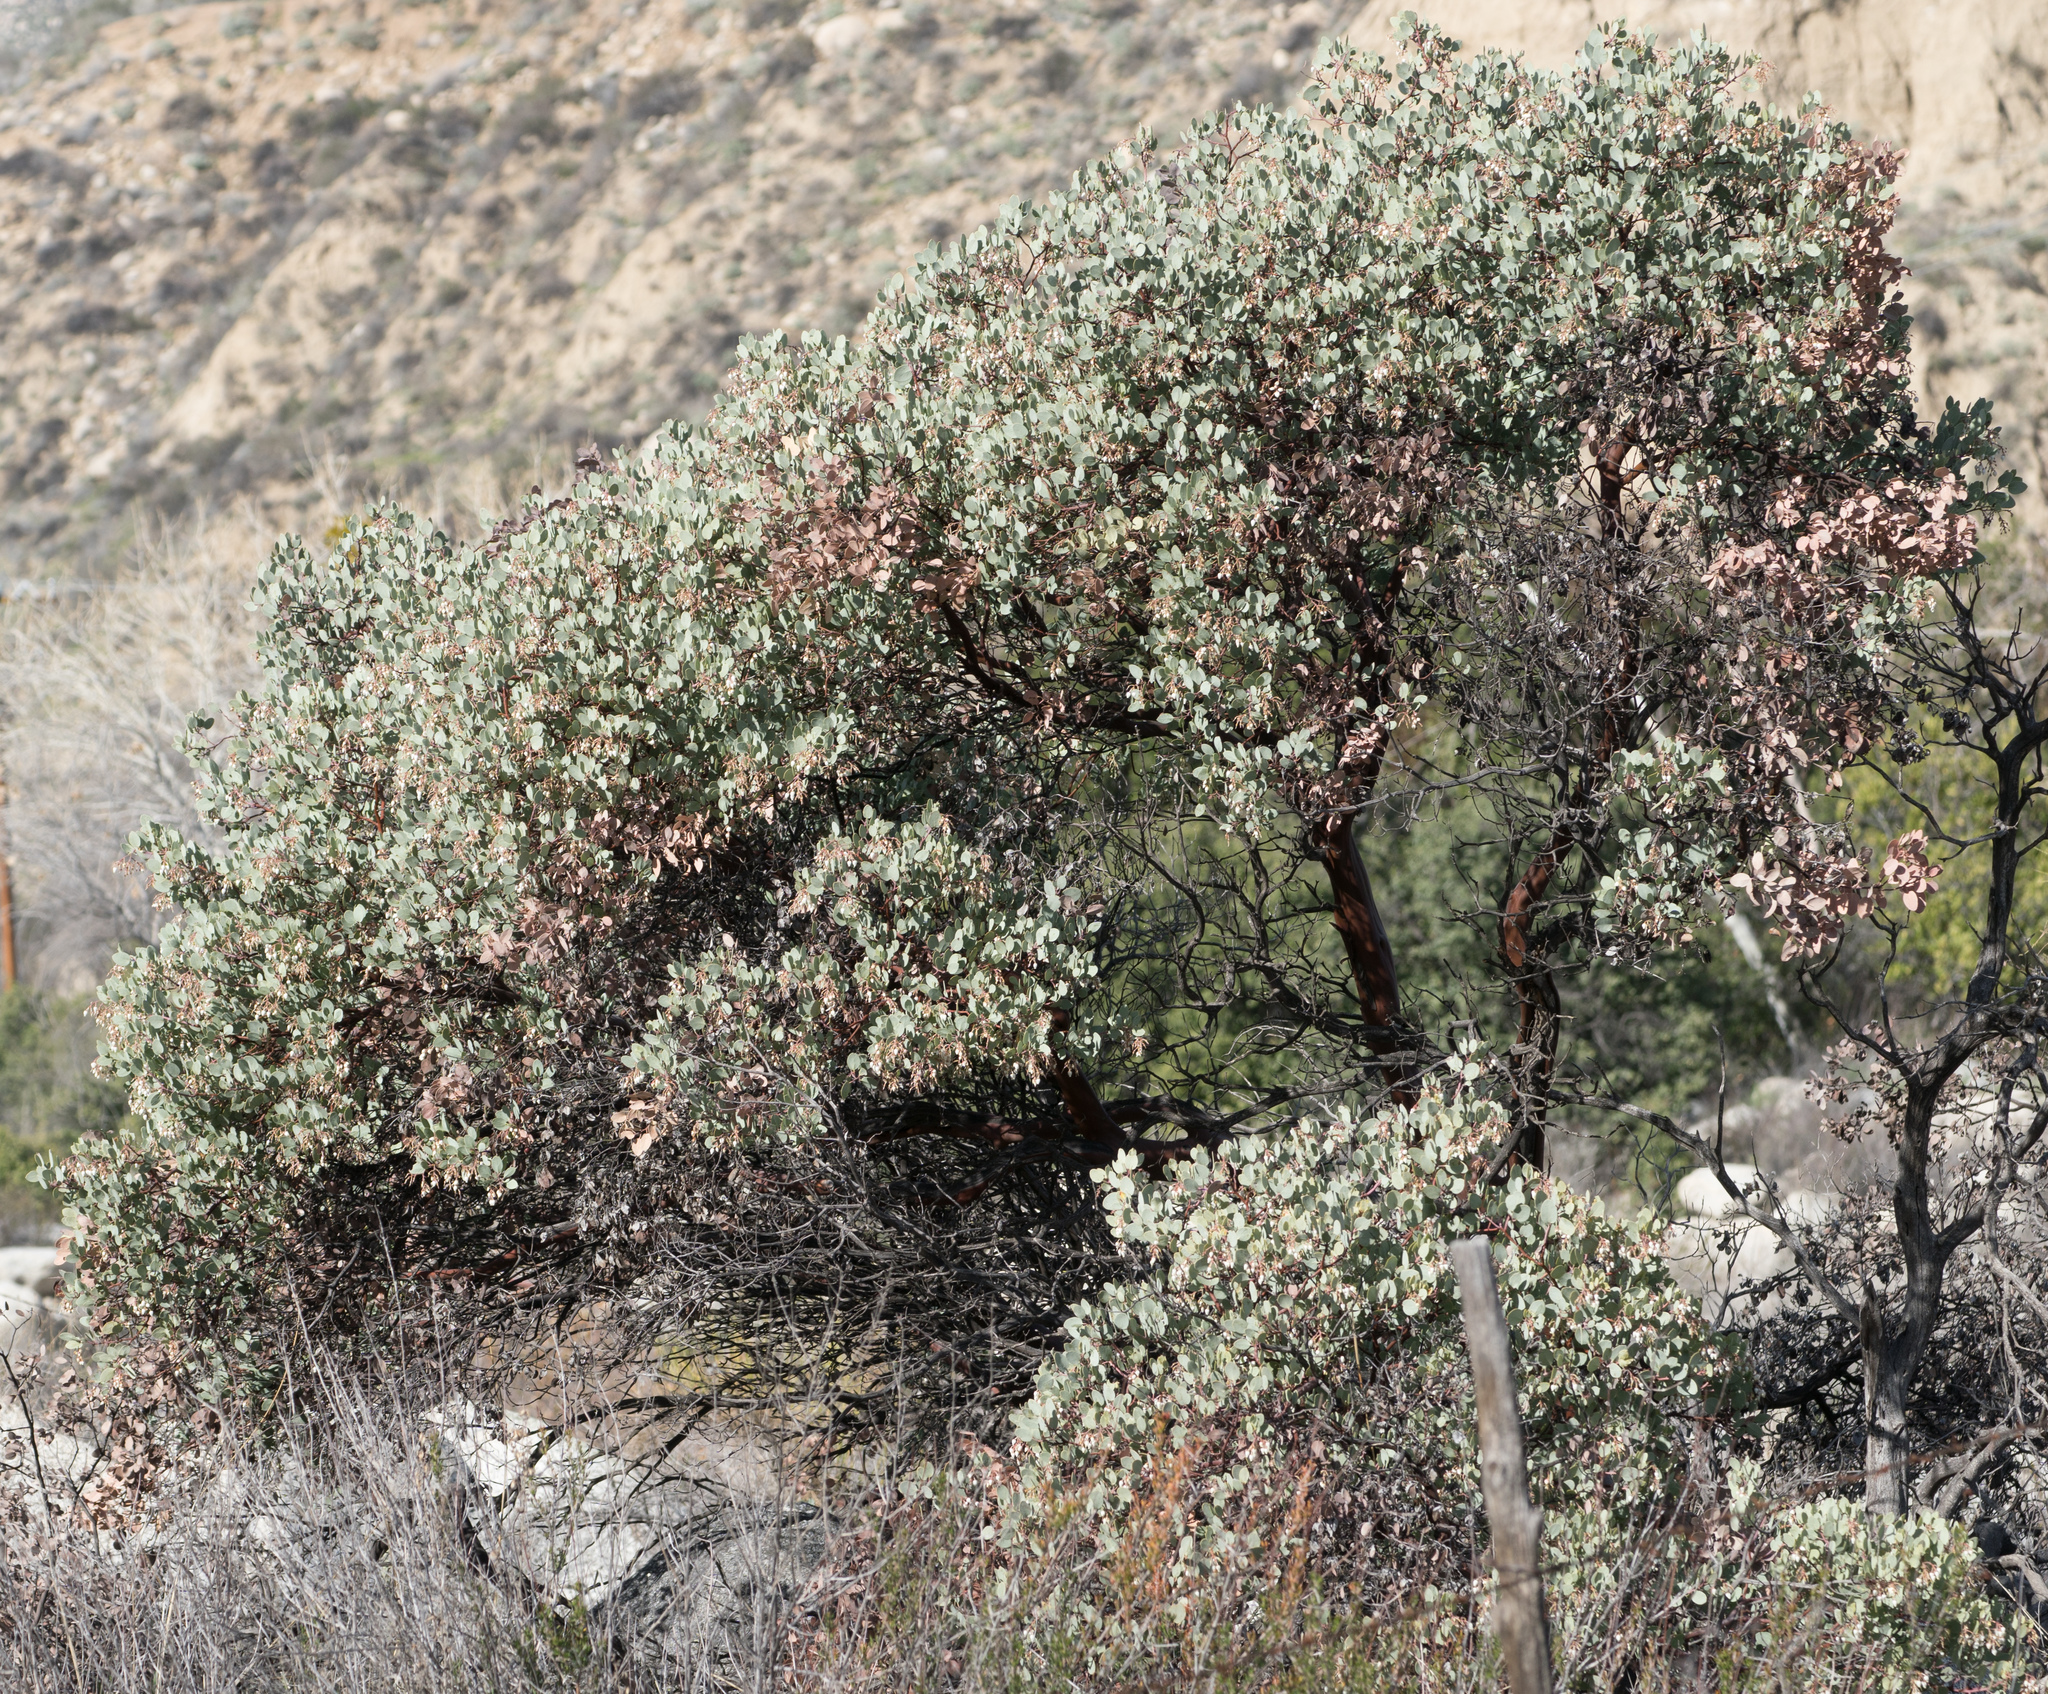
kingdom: Plantae
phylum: Tracheophyta
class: Magnoliopsida
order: Ericales
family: Ericaceae
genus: Arctostaphylos
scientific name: Arctostaphylos glauca
